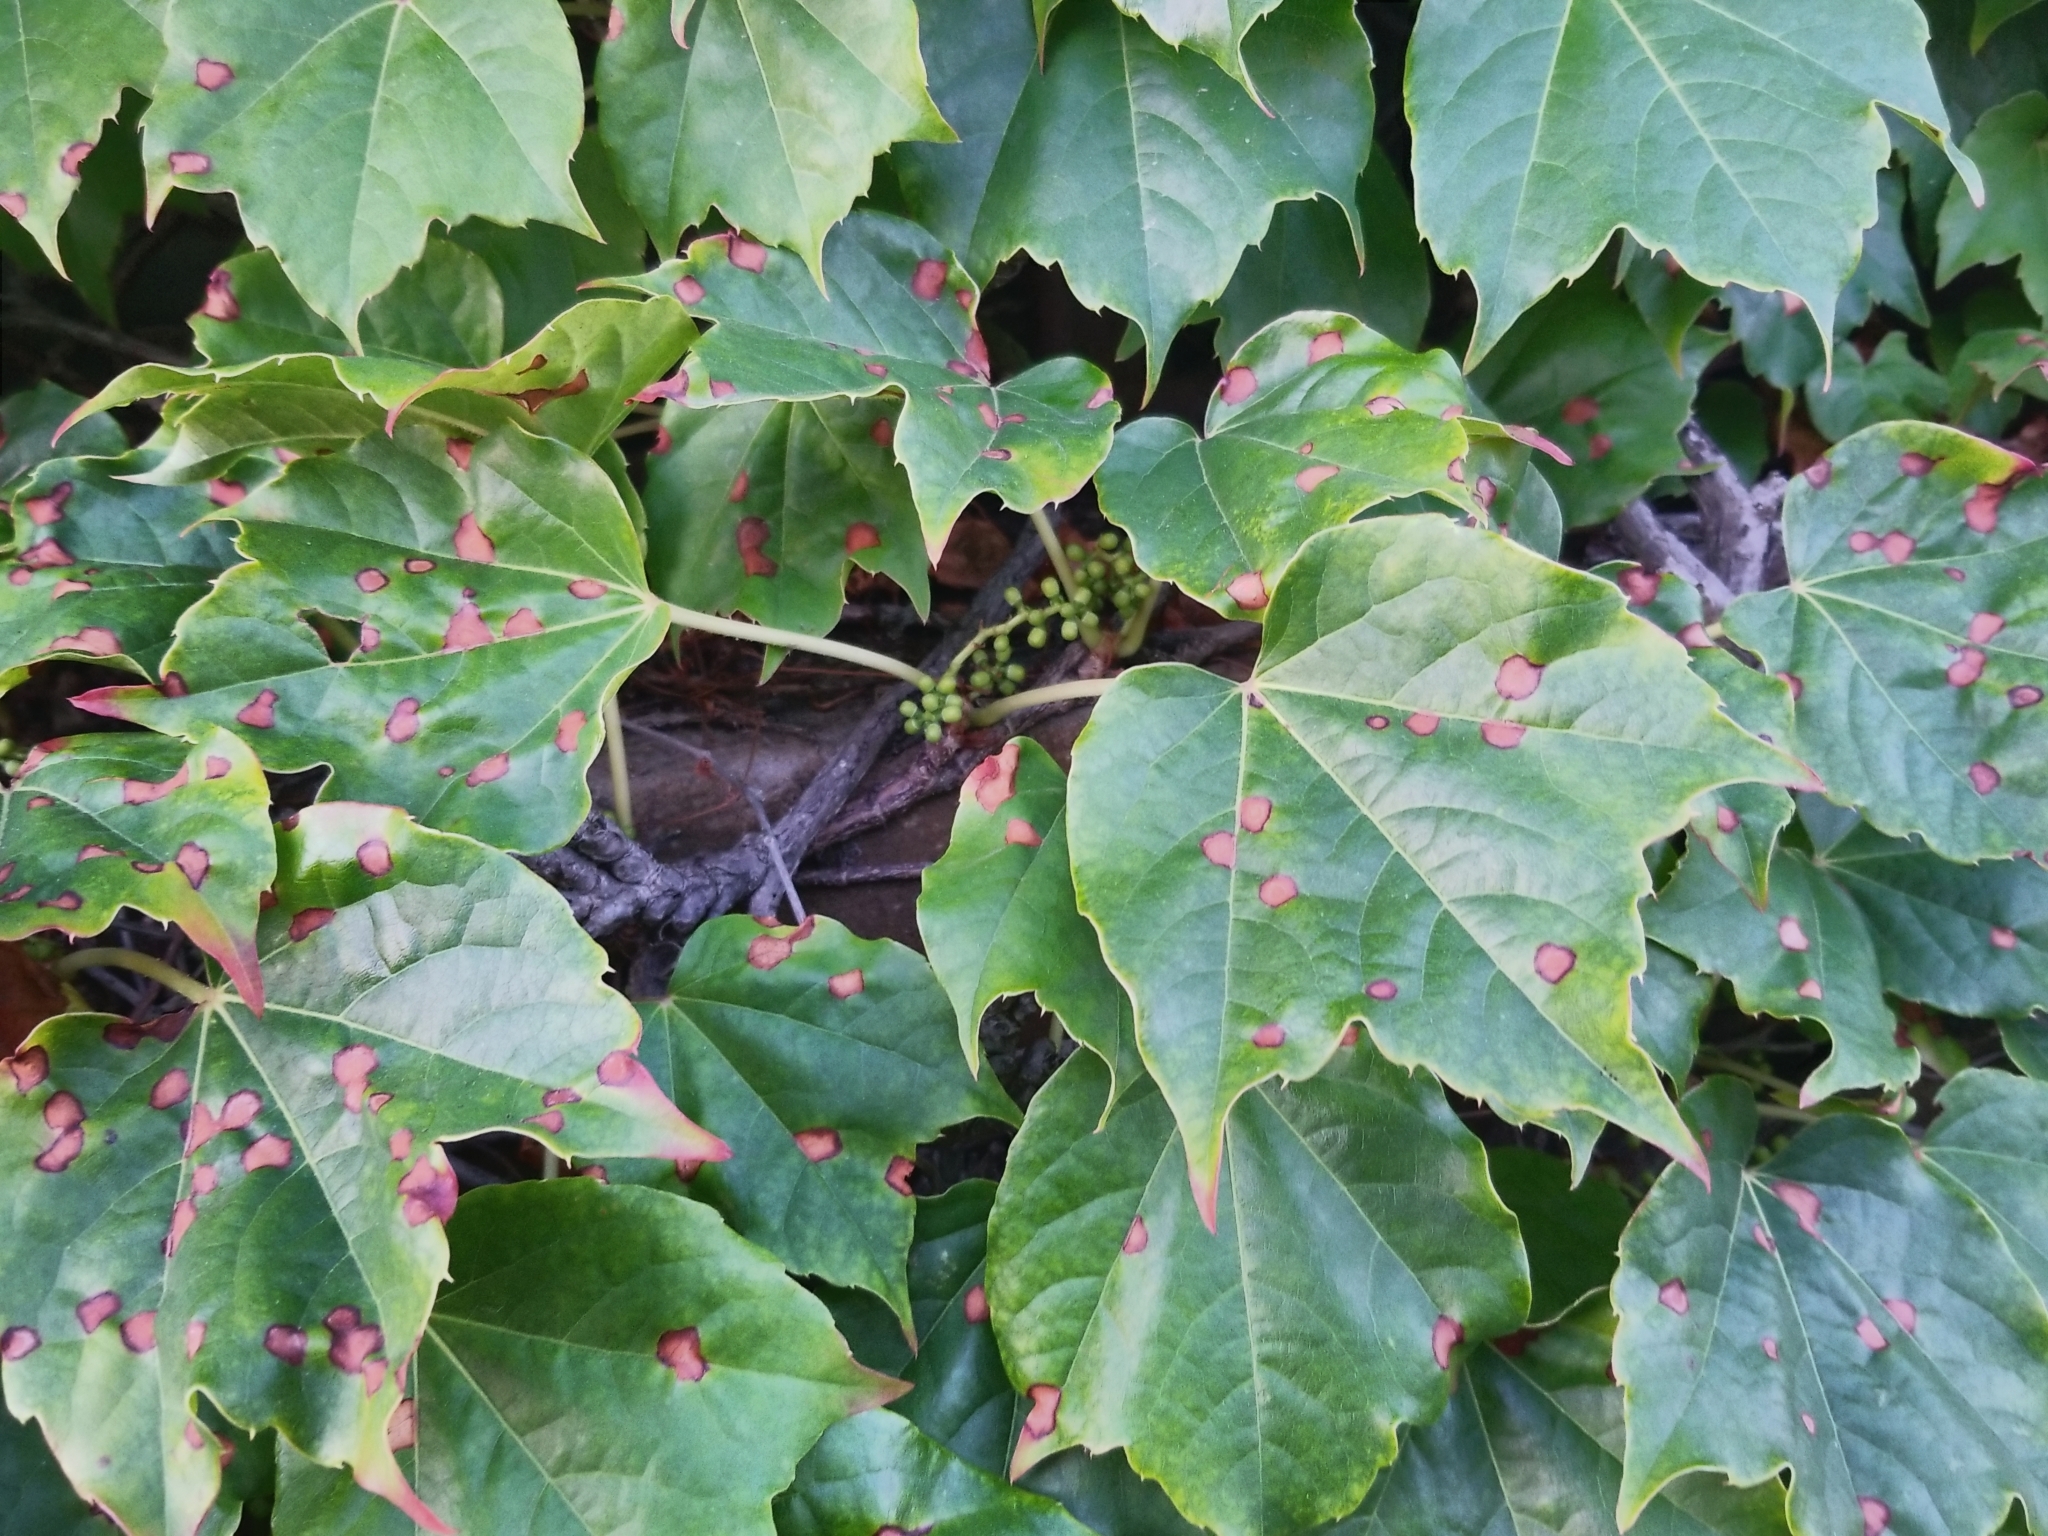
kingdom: Plantae
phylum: Tracheophyta
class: Magnoliopsida
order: Vitales
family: Vitaceae
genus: Parthenocissus
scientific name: Parthenocissus tricuspidata
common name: Boston ivy
